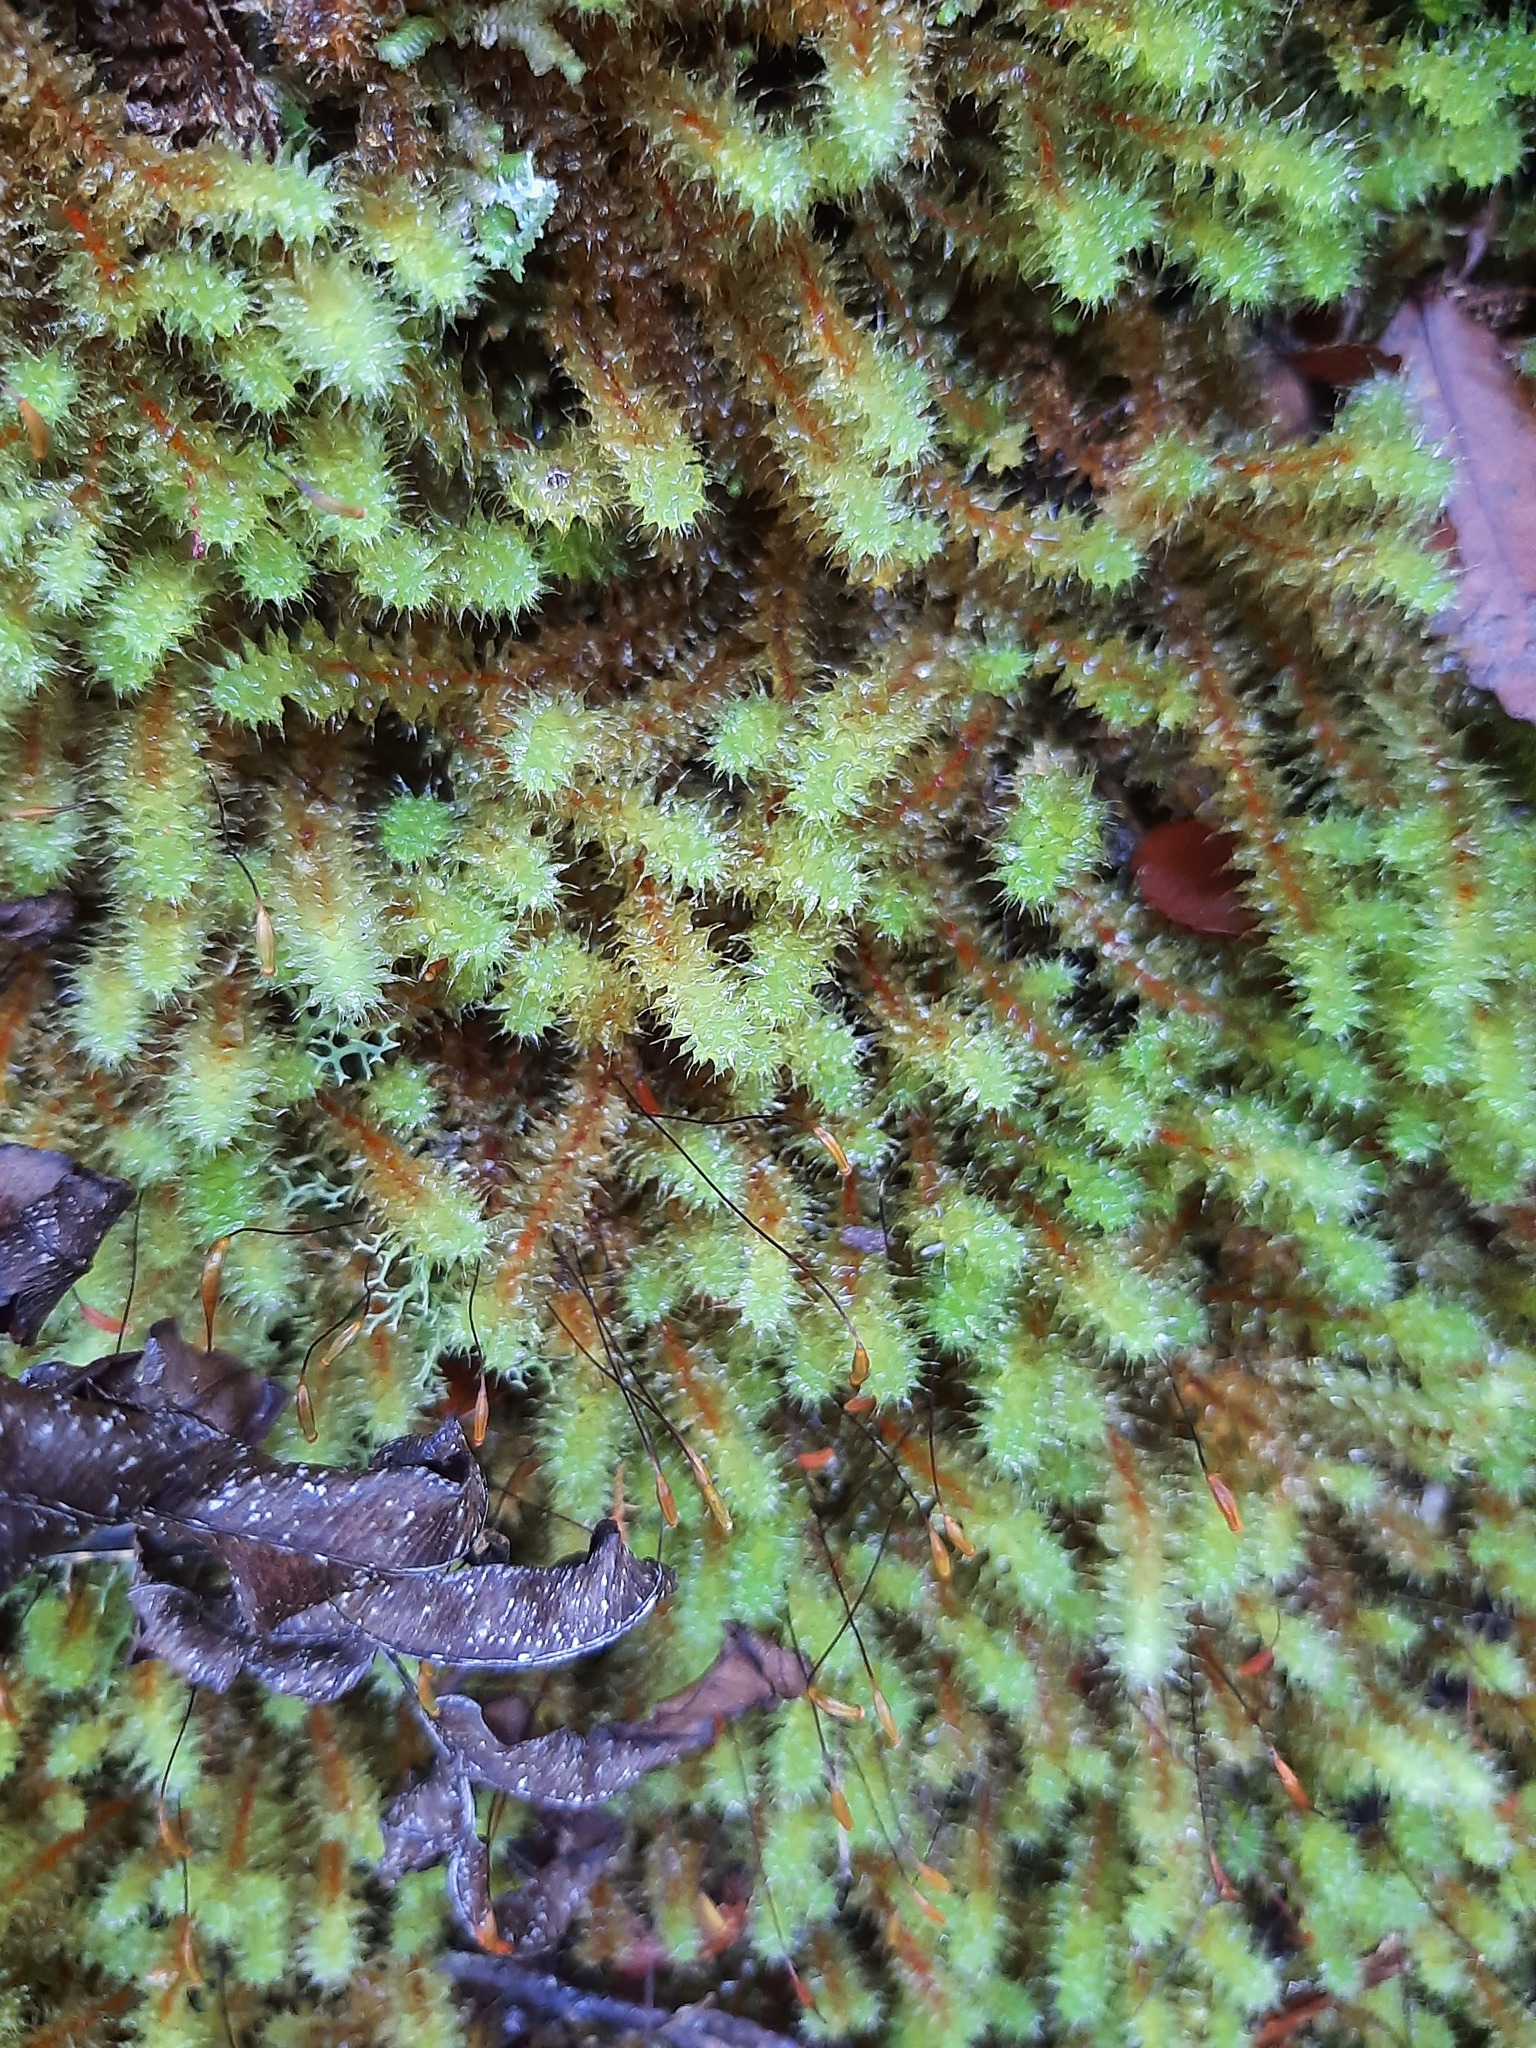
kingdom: Plantae
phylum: Bryophyta
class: Bryopsida
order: Ptychomniales
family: Ptychomniaceae
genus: Ptychomnion
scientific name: Ptychomnion aciculare
